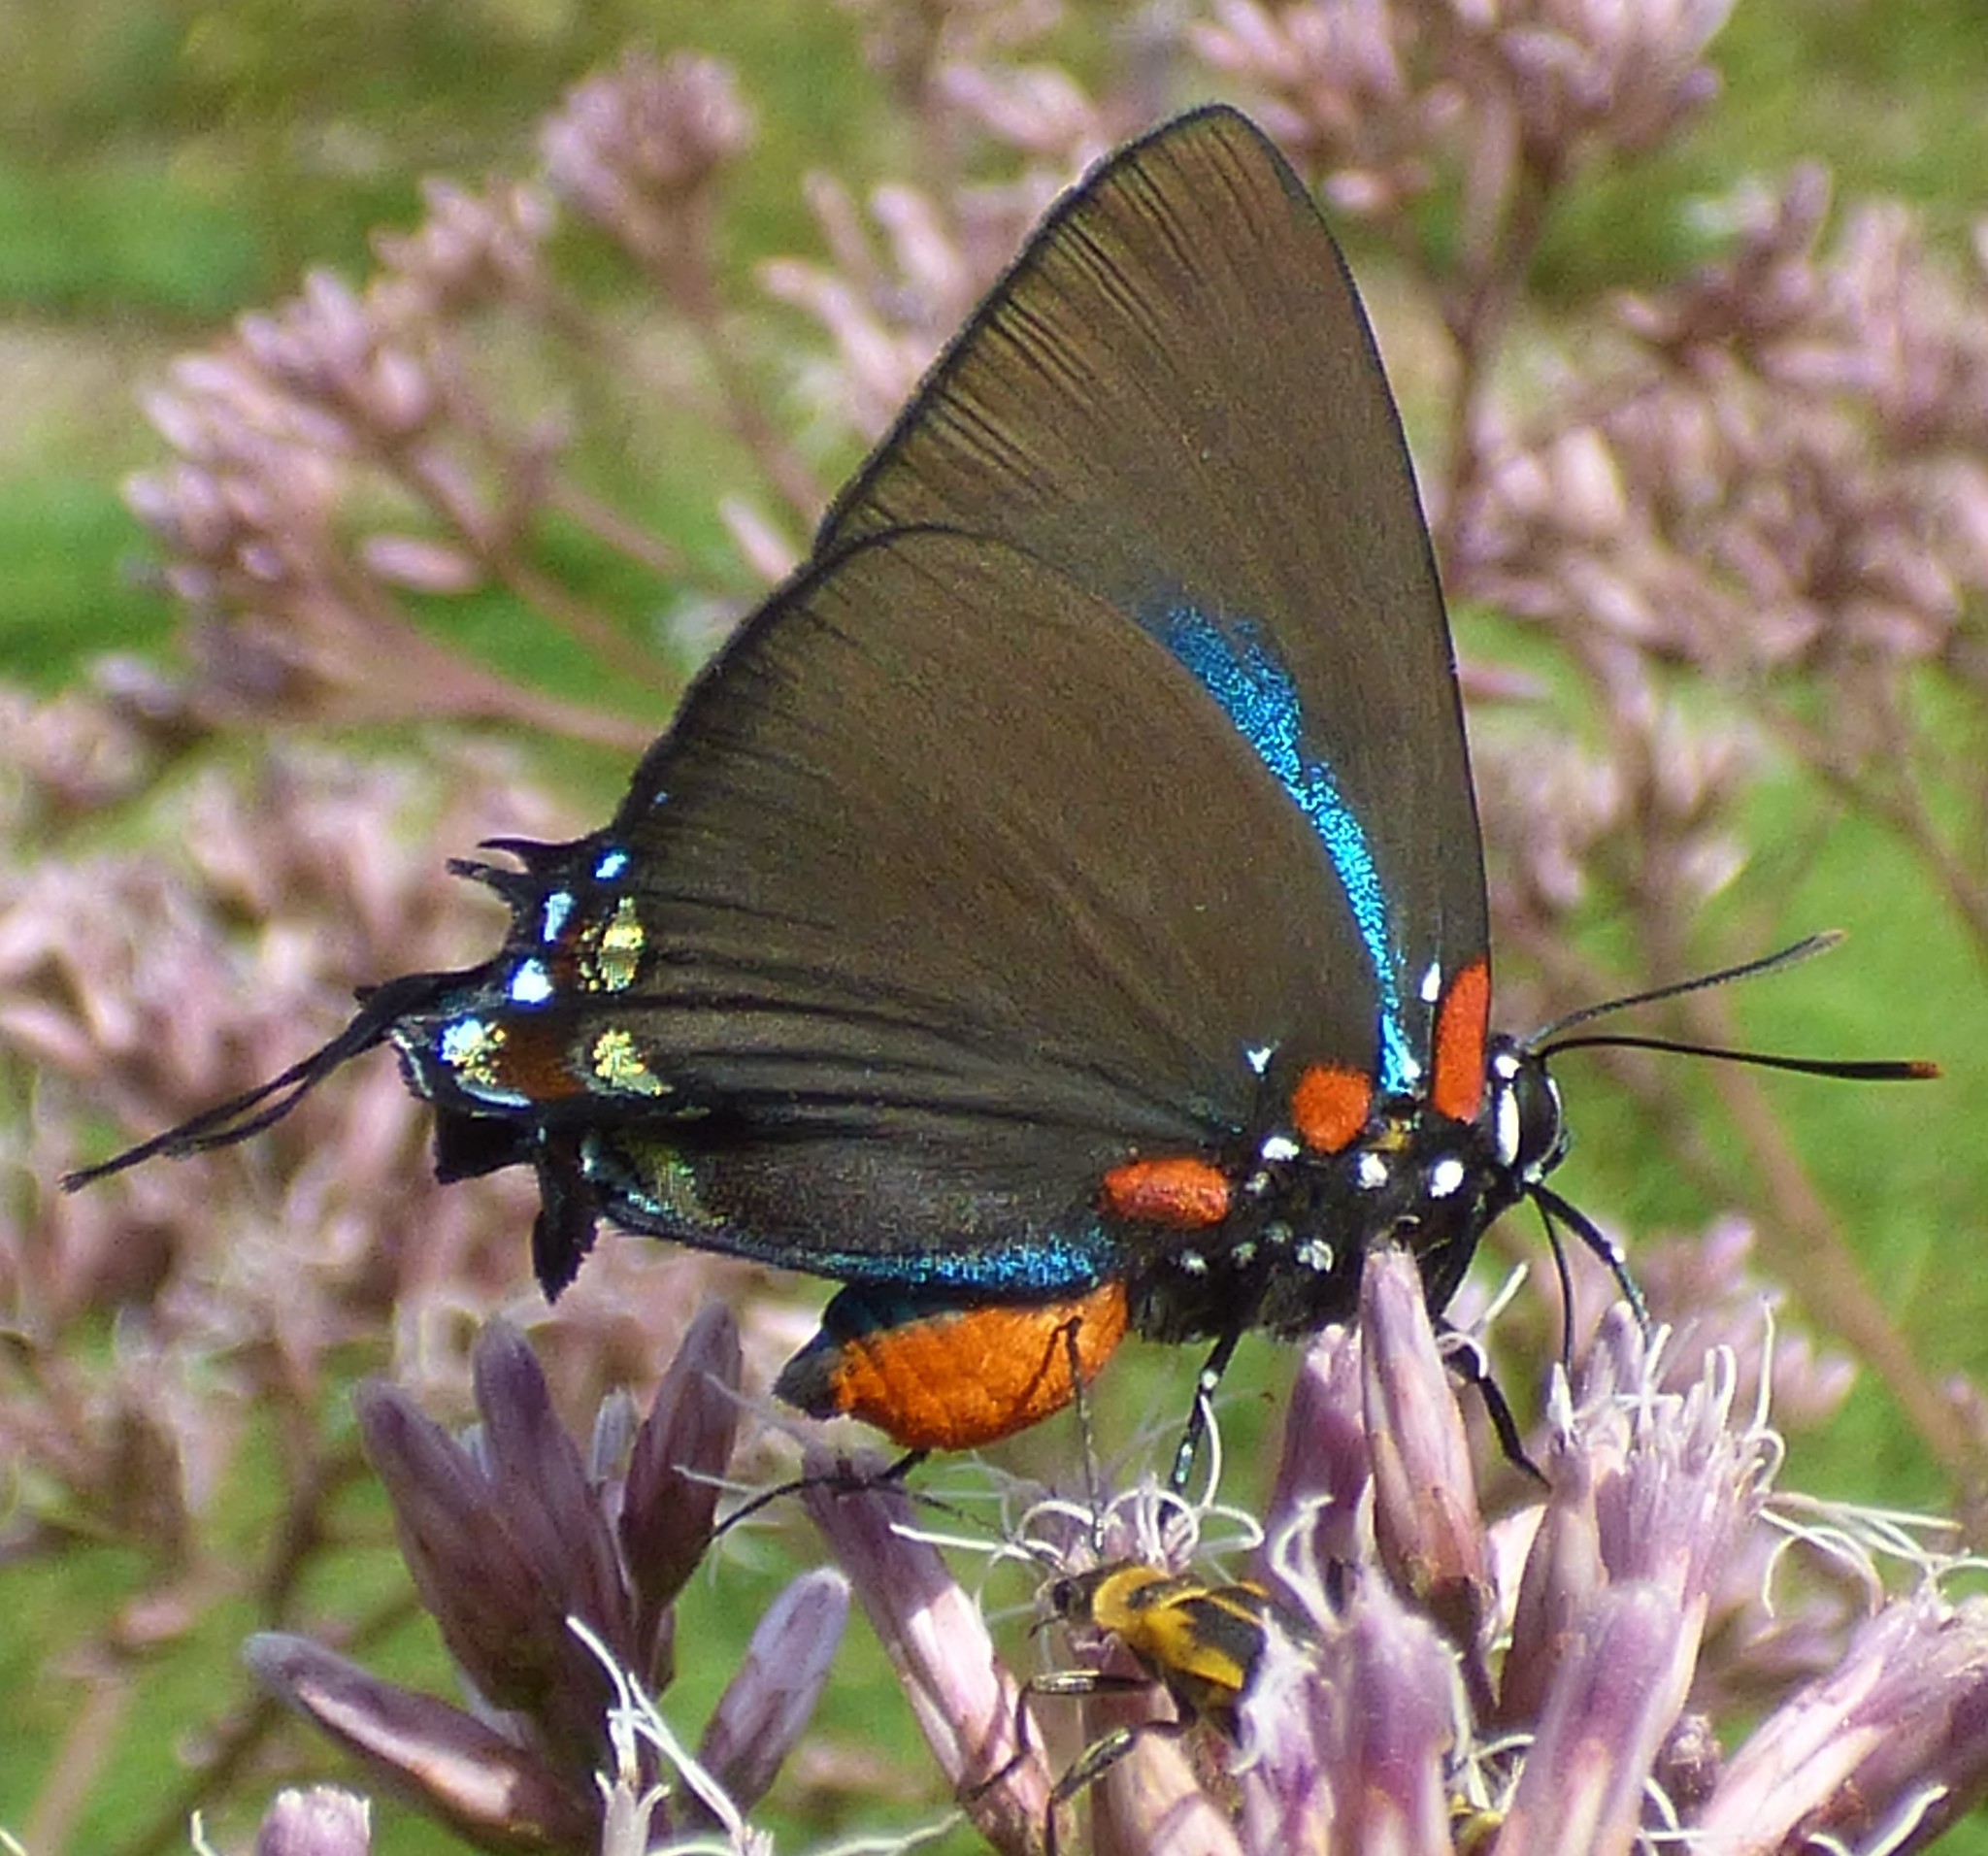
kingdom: Animalia
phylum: Arthropoda
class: Insecta
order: Lepidoptera
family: Lycaenidae
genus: Atlides
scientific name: Atlides halesus
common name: Great purple hairstreak
